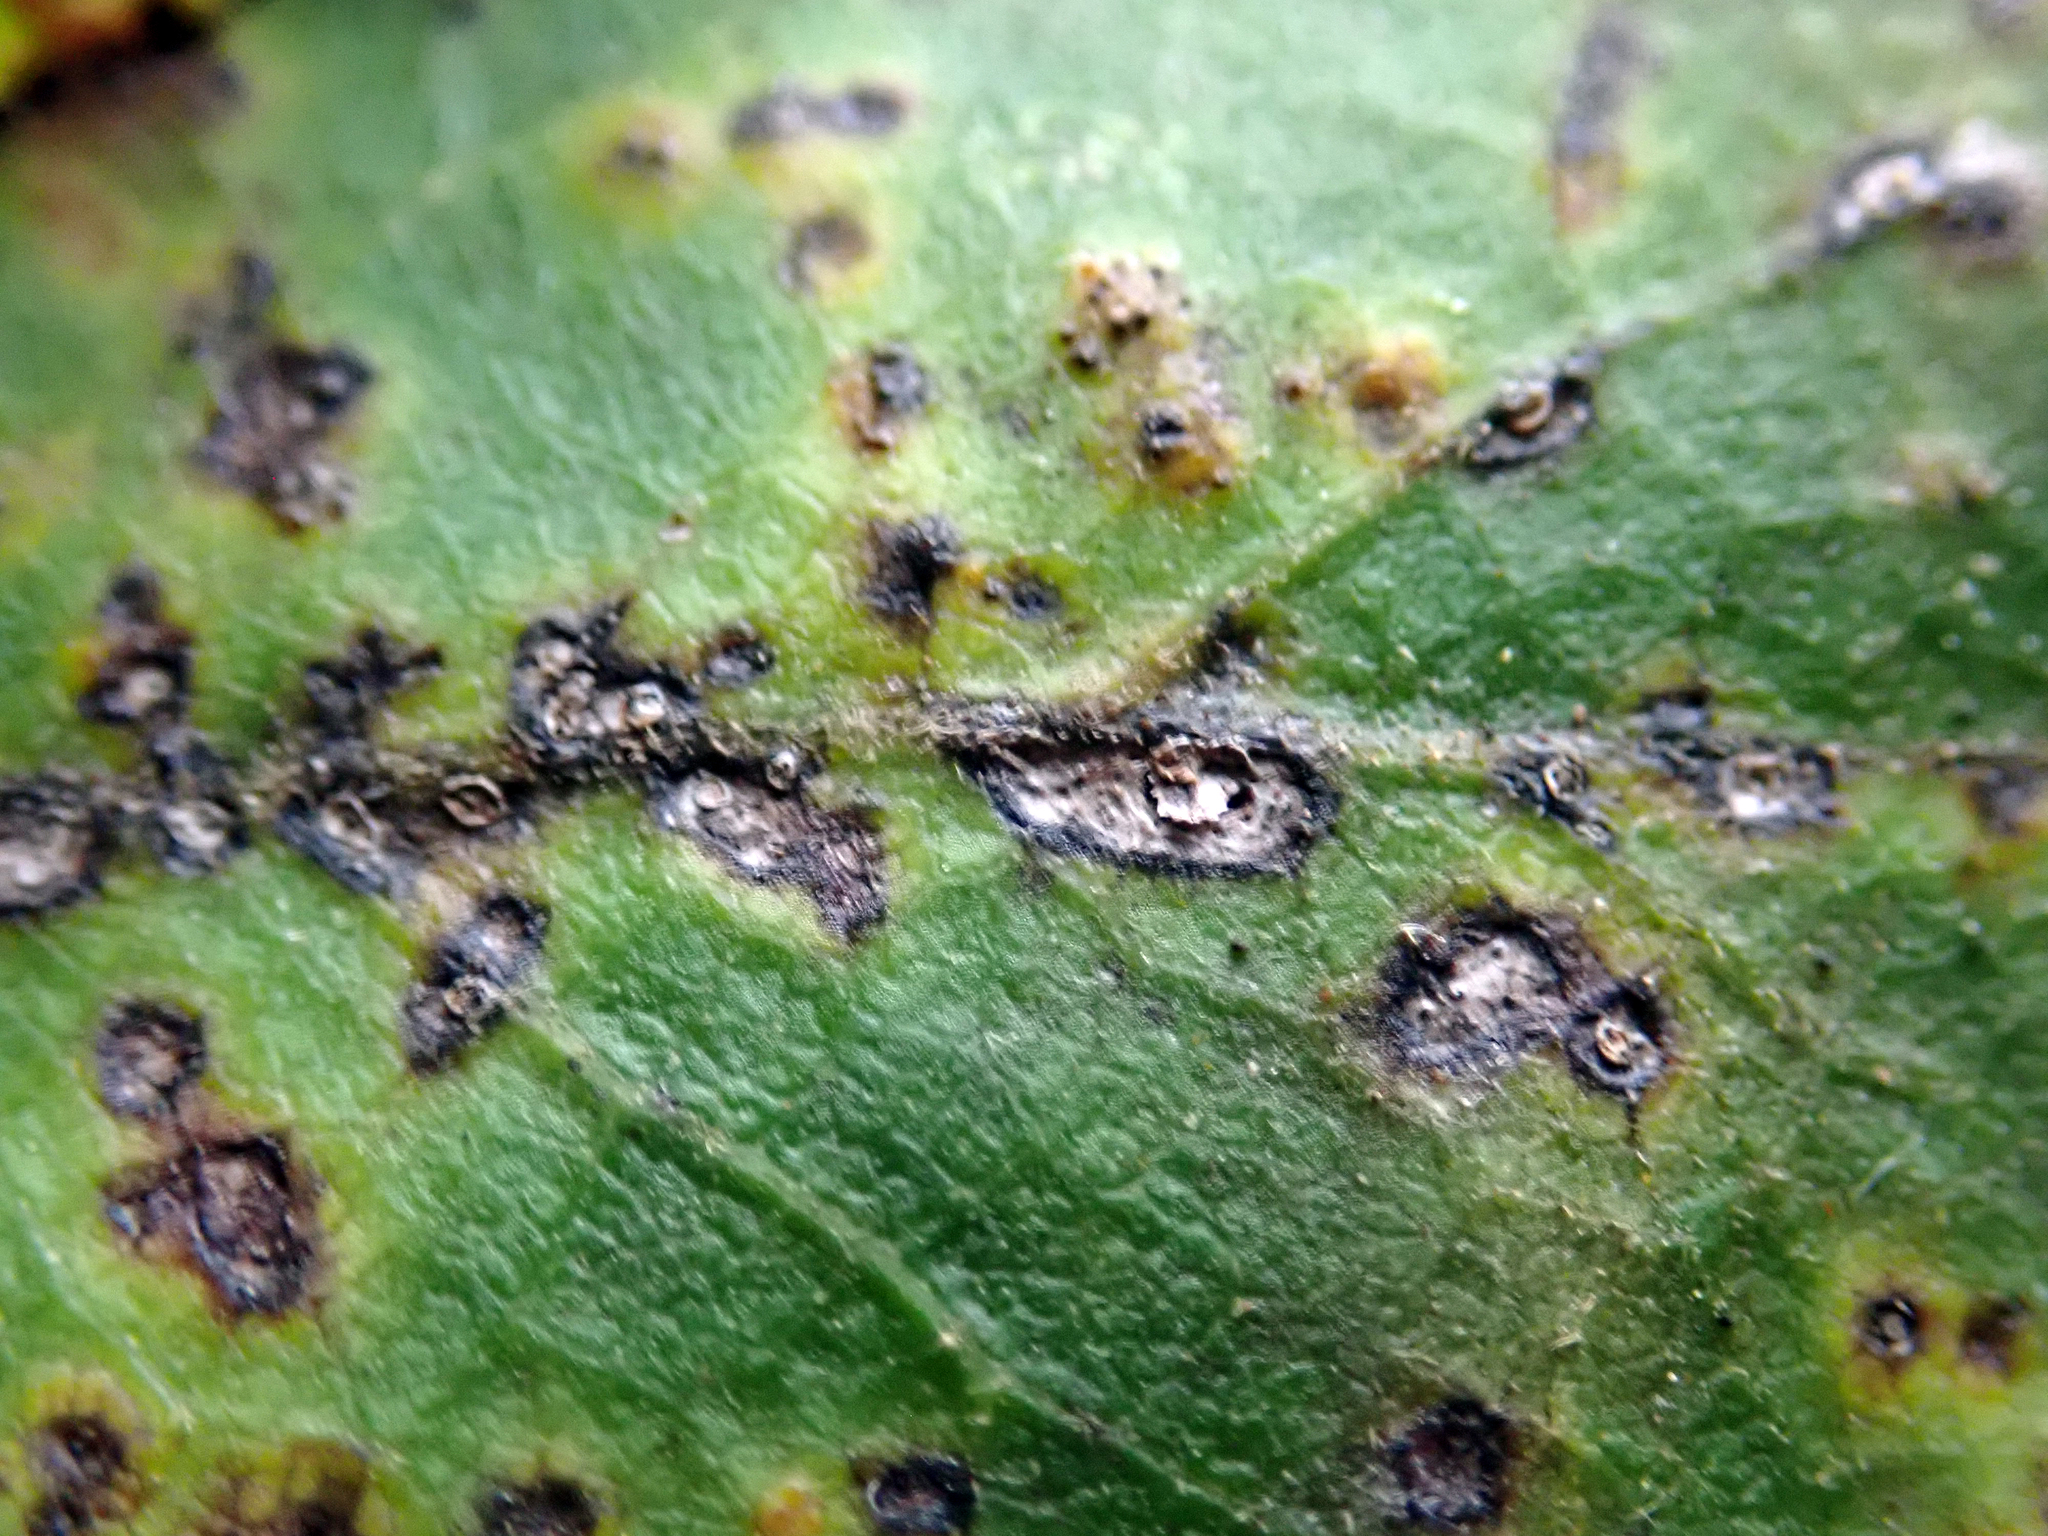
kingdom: Fungi
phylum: Basidiomycota
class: Pucciniomycetes
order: Pucciniales
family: Pucciniaceae
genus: Puccinia
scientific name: Puccinia plagianthi
